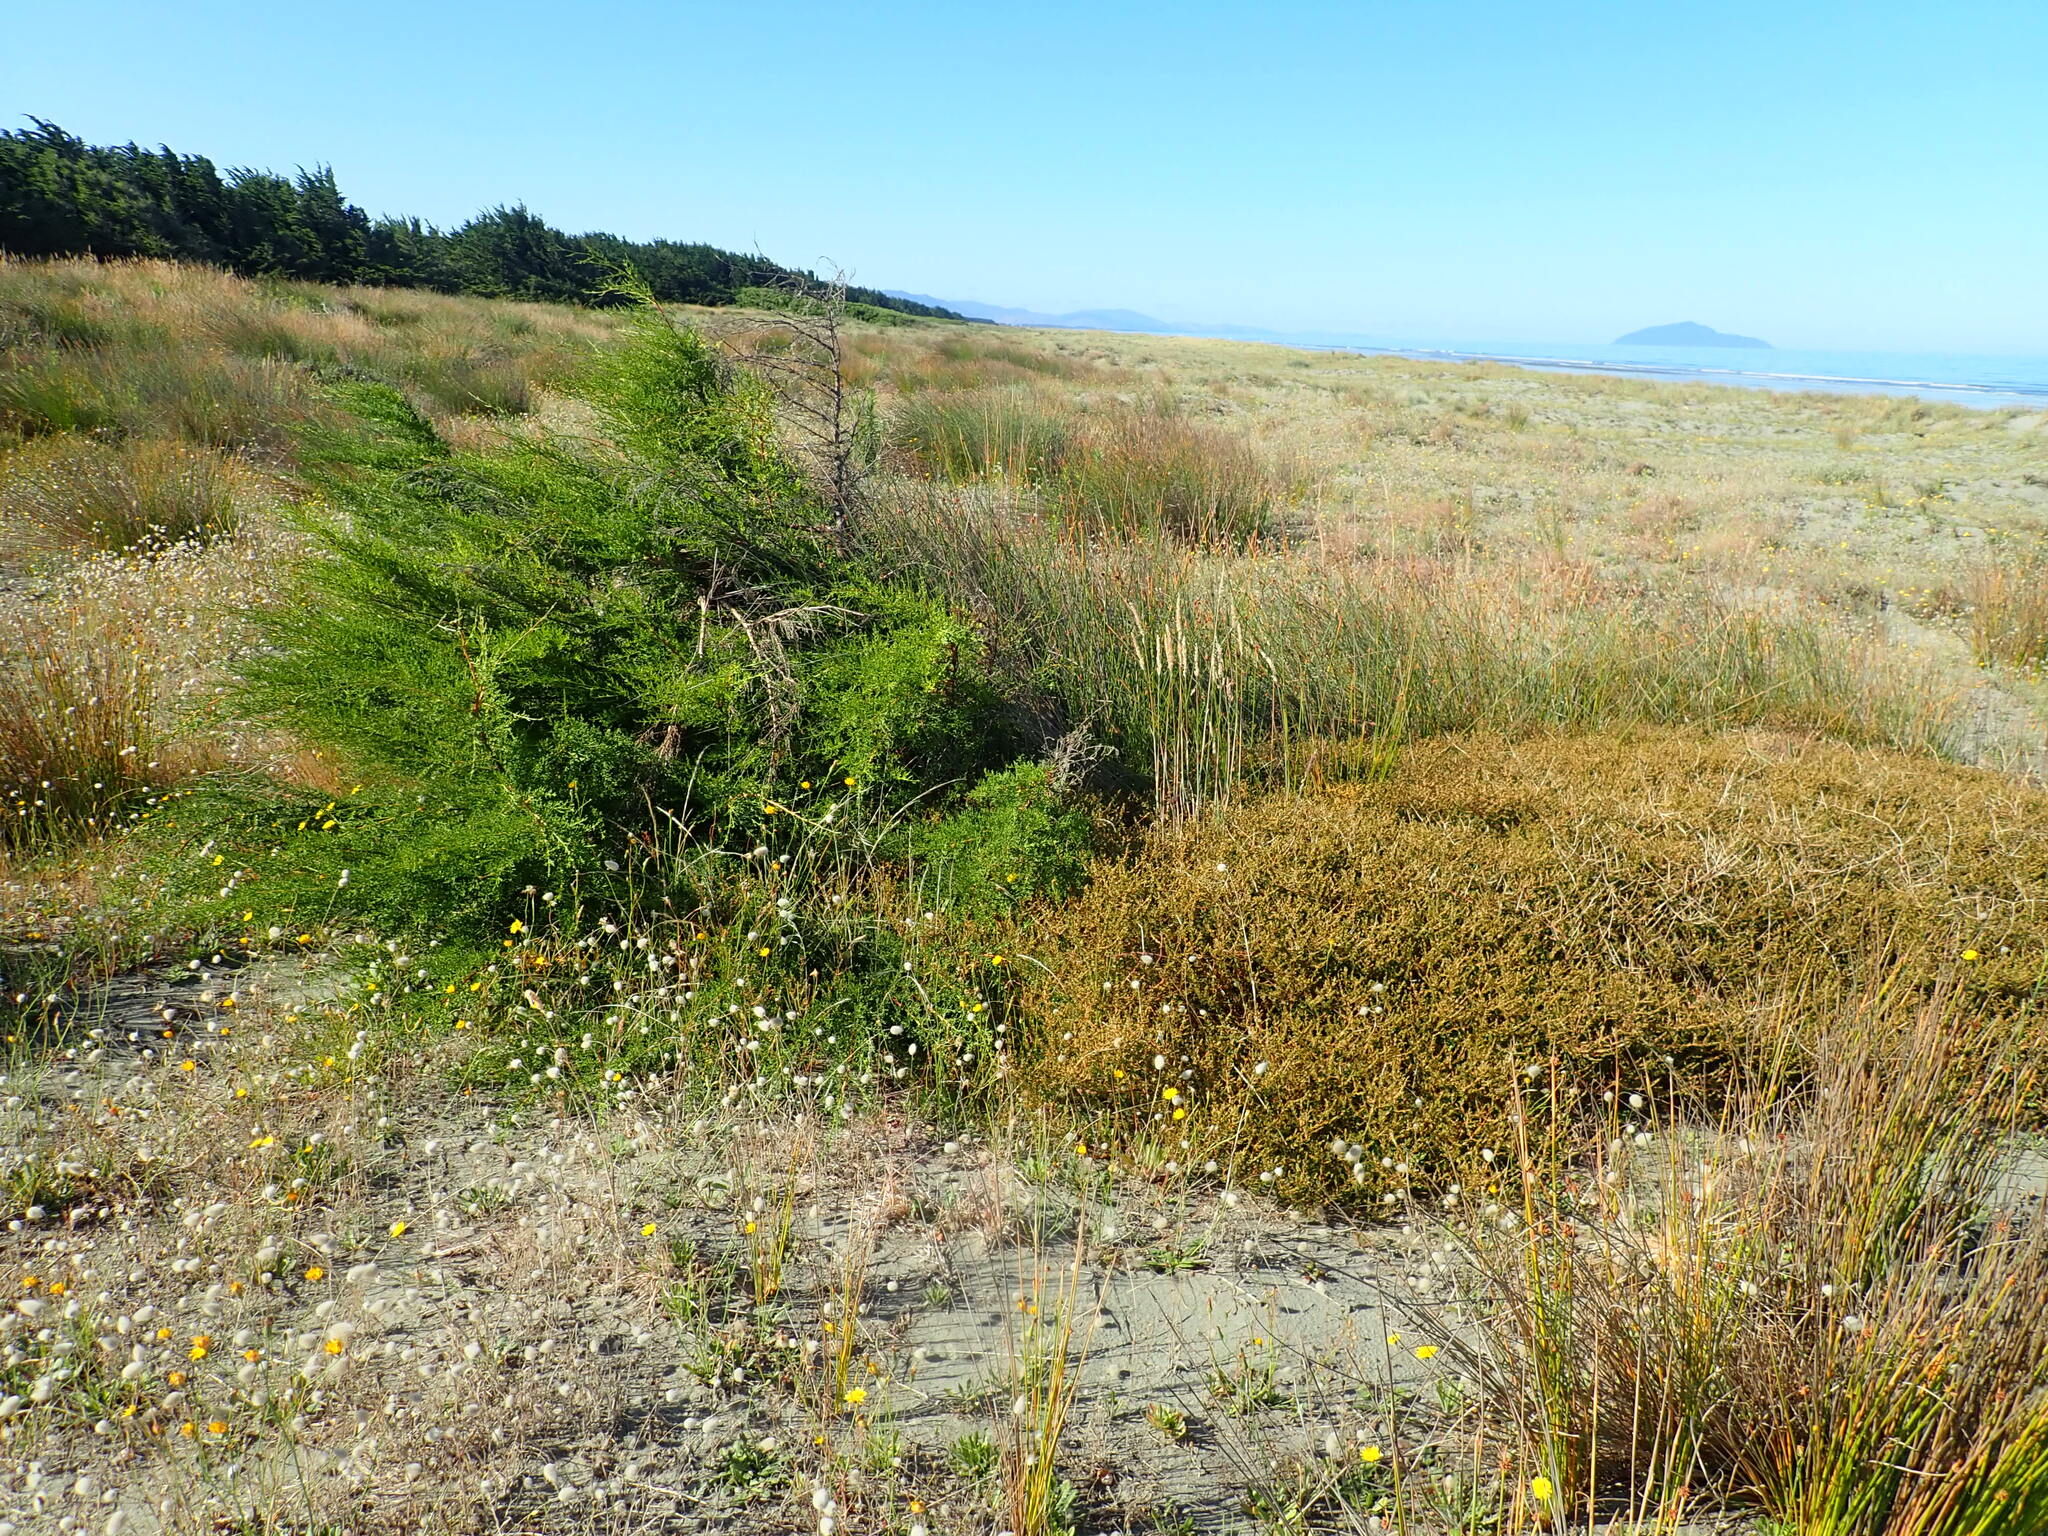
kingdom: Plantae
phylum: Tracheophyta
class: Pinopsida
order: Pinales
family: Cupressaceae
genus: Cupressus
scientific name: Cupressus macrocarpa
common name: Monterey cypress
